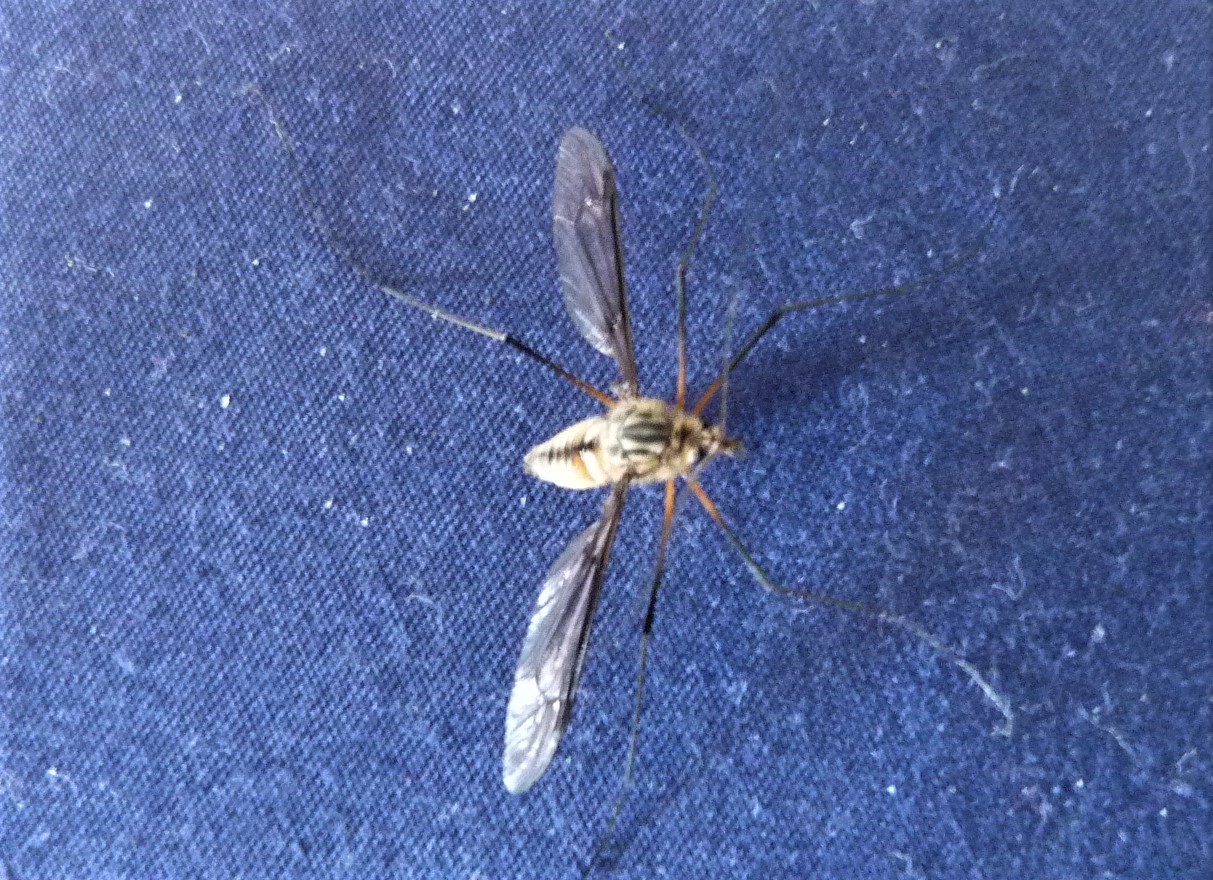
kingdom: Animalia
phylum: Arthropoda
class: Insecta
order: Diptera
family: Tipulidae
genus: Leptotarsus
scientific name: Leptotarsus vulpinus
